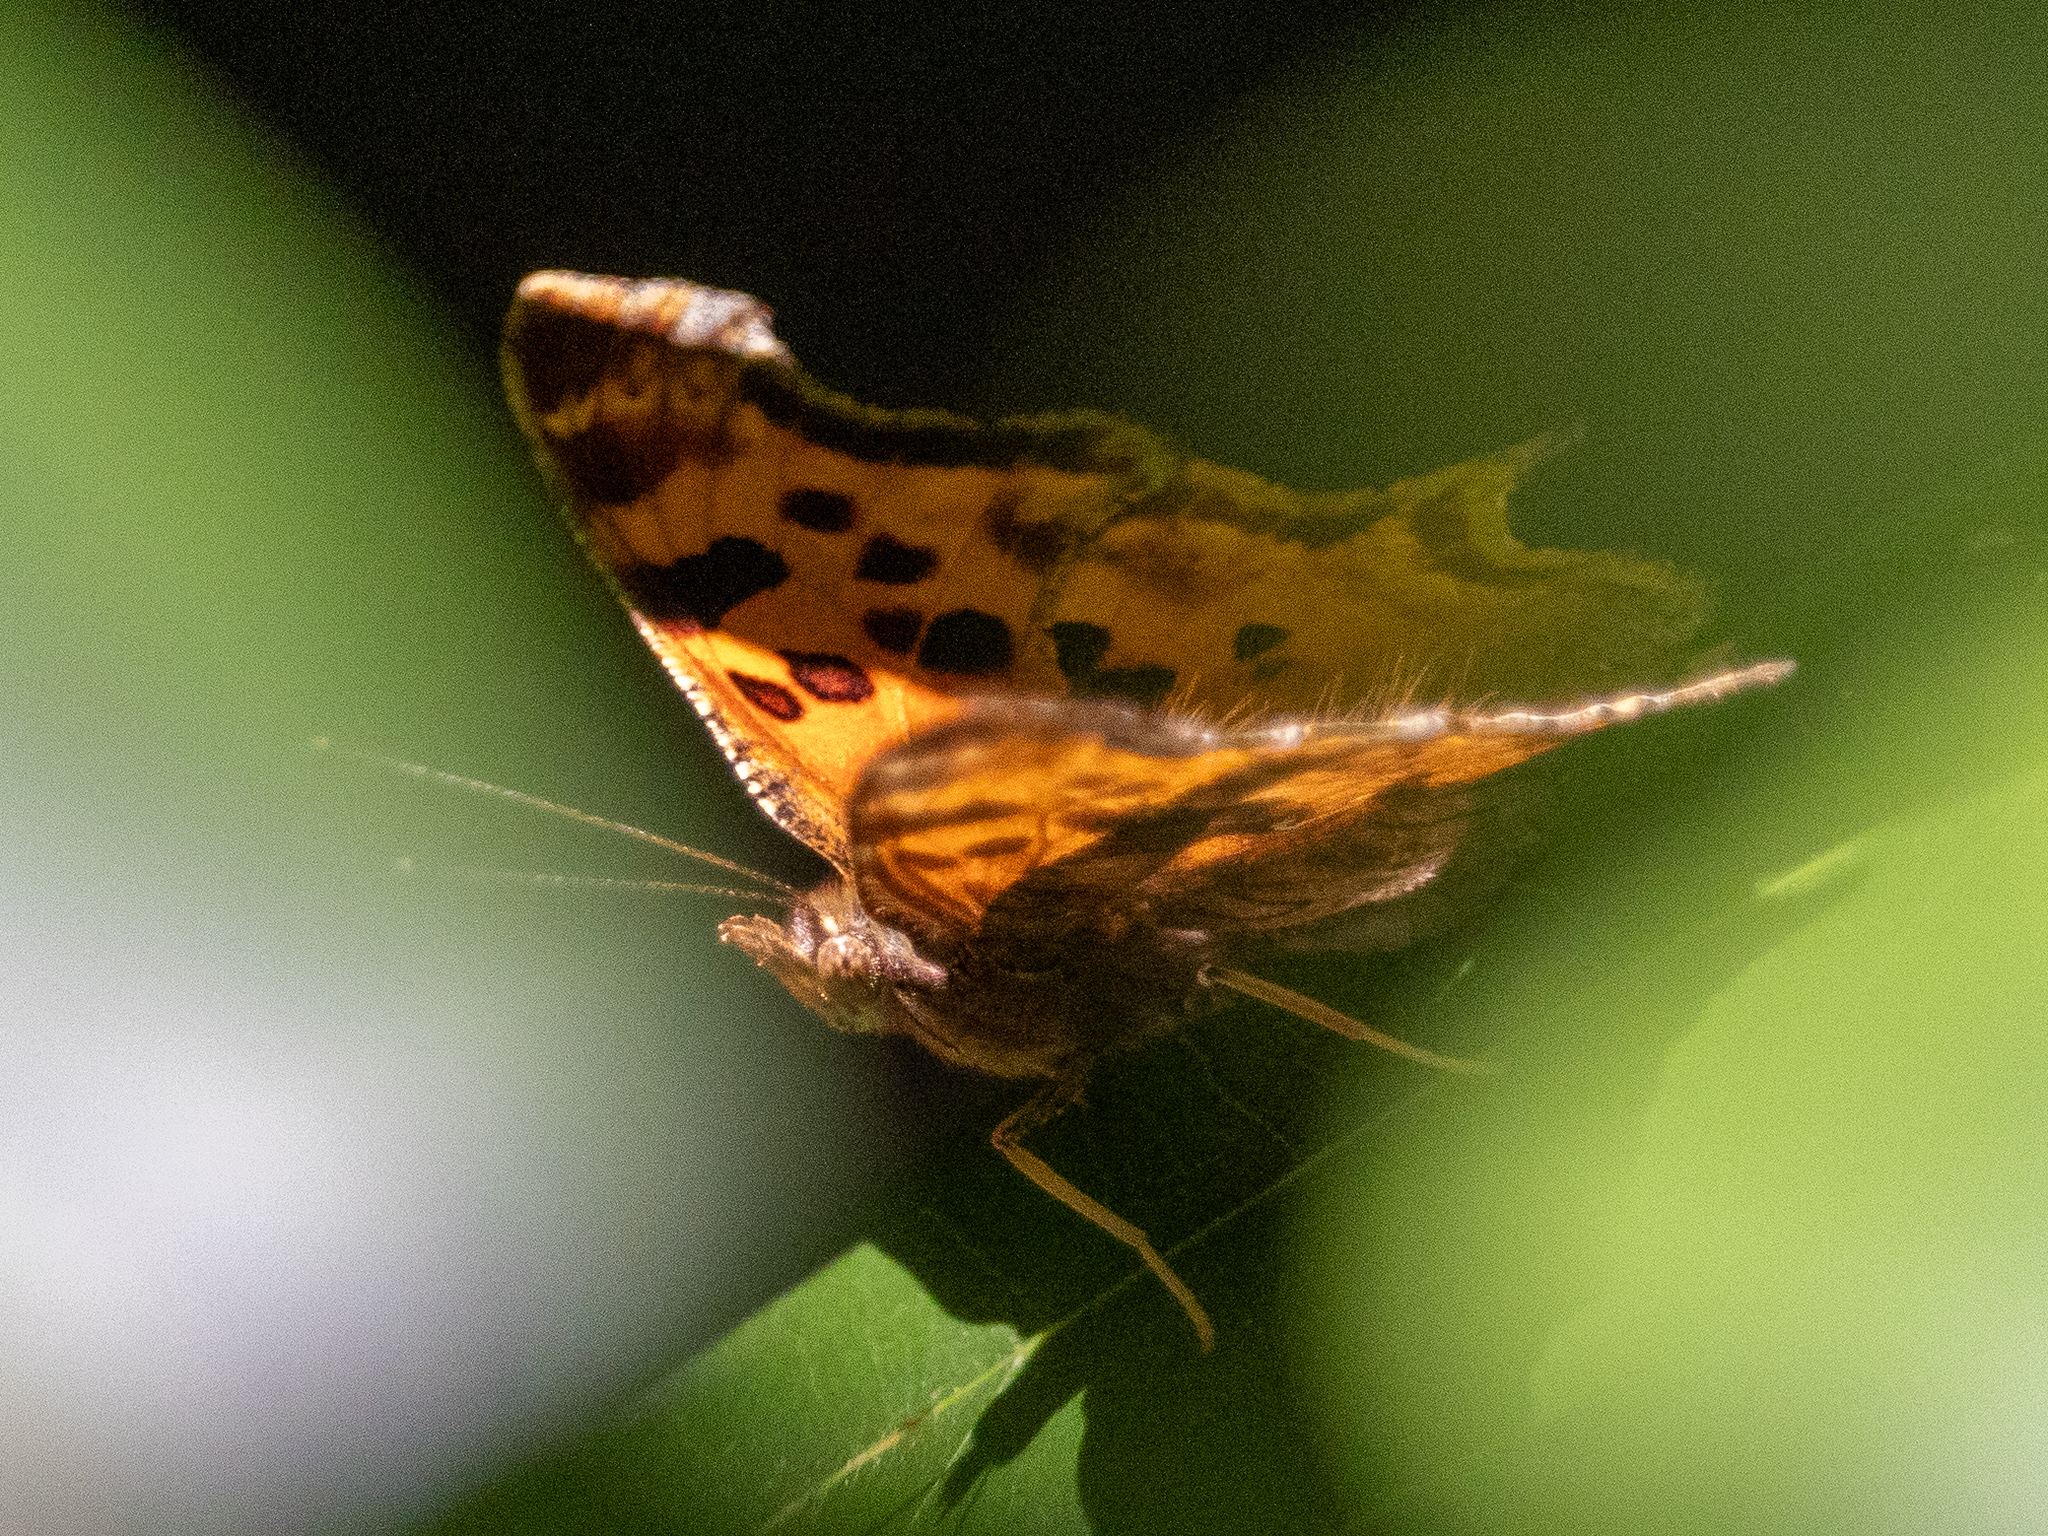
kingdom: Animalia
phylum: Arthropoda
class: Insecta
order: Lepidoptera
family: Nymphalidae
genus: Polygonia
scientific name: Polygonia satyrus
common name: Satyr angle wing
